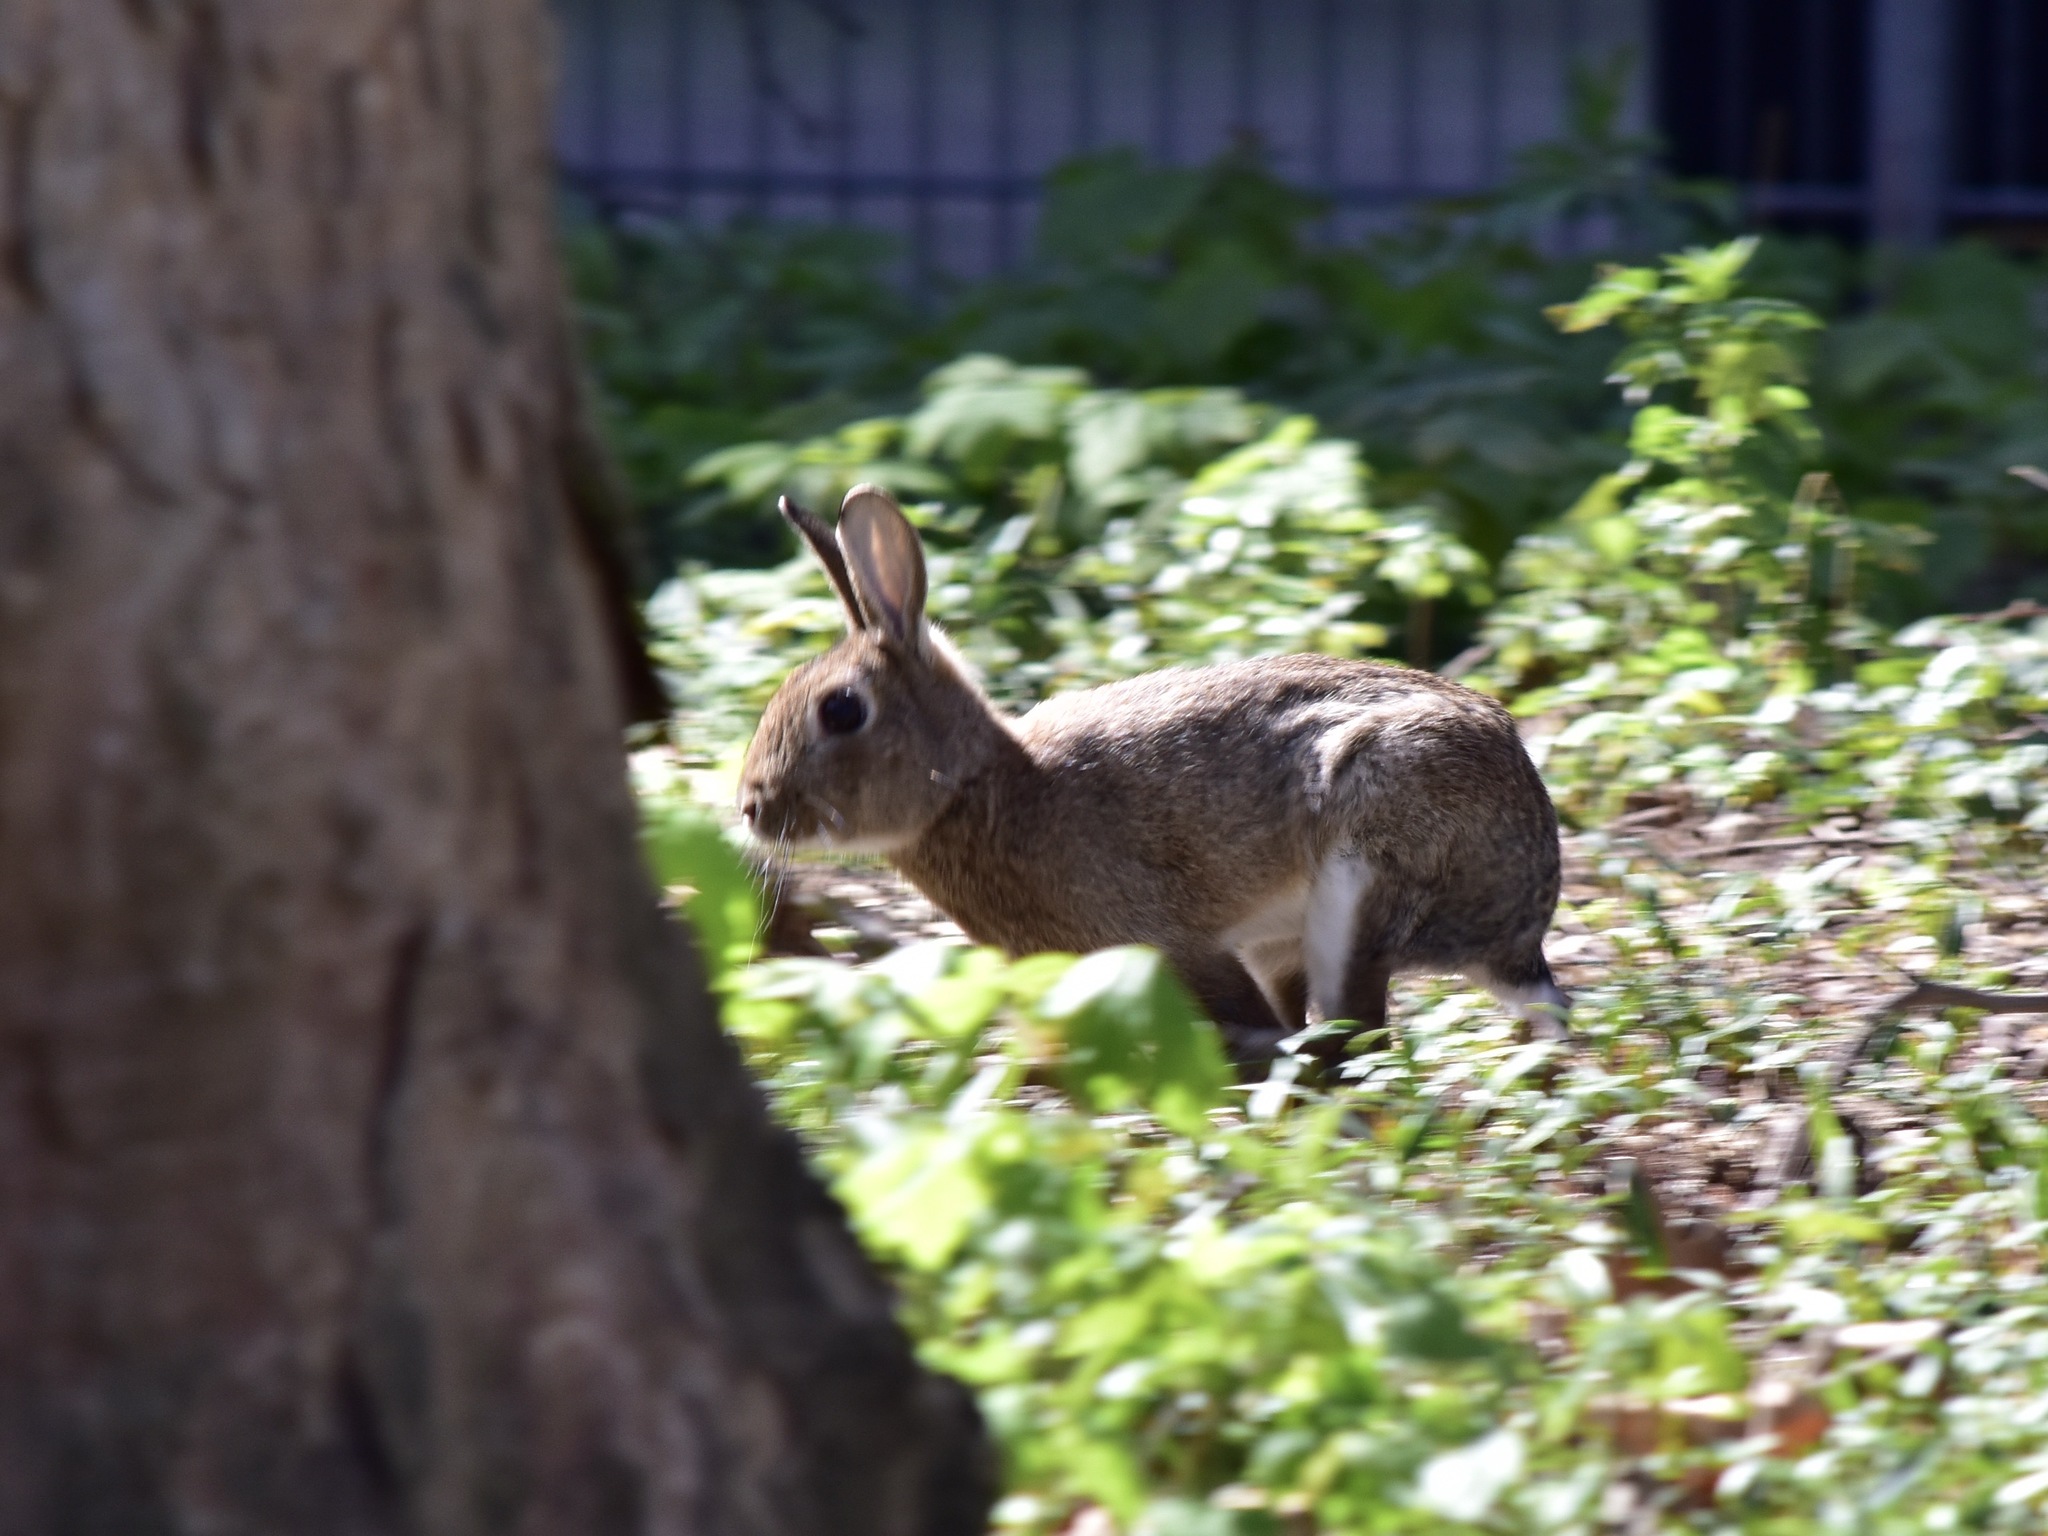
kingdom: Animalia
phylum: Chordata
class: Mammalia
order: Lagomorpha
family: Leporidae
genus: Oryctolagus
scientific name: Oryctolagus cuniculus
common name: European rabbit
